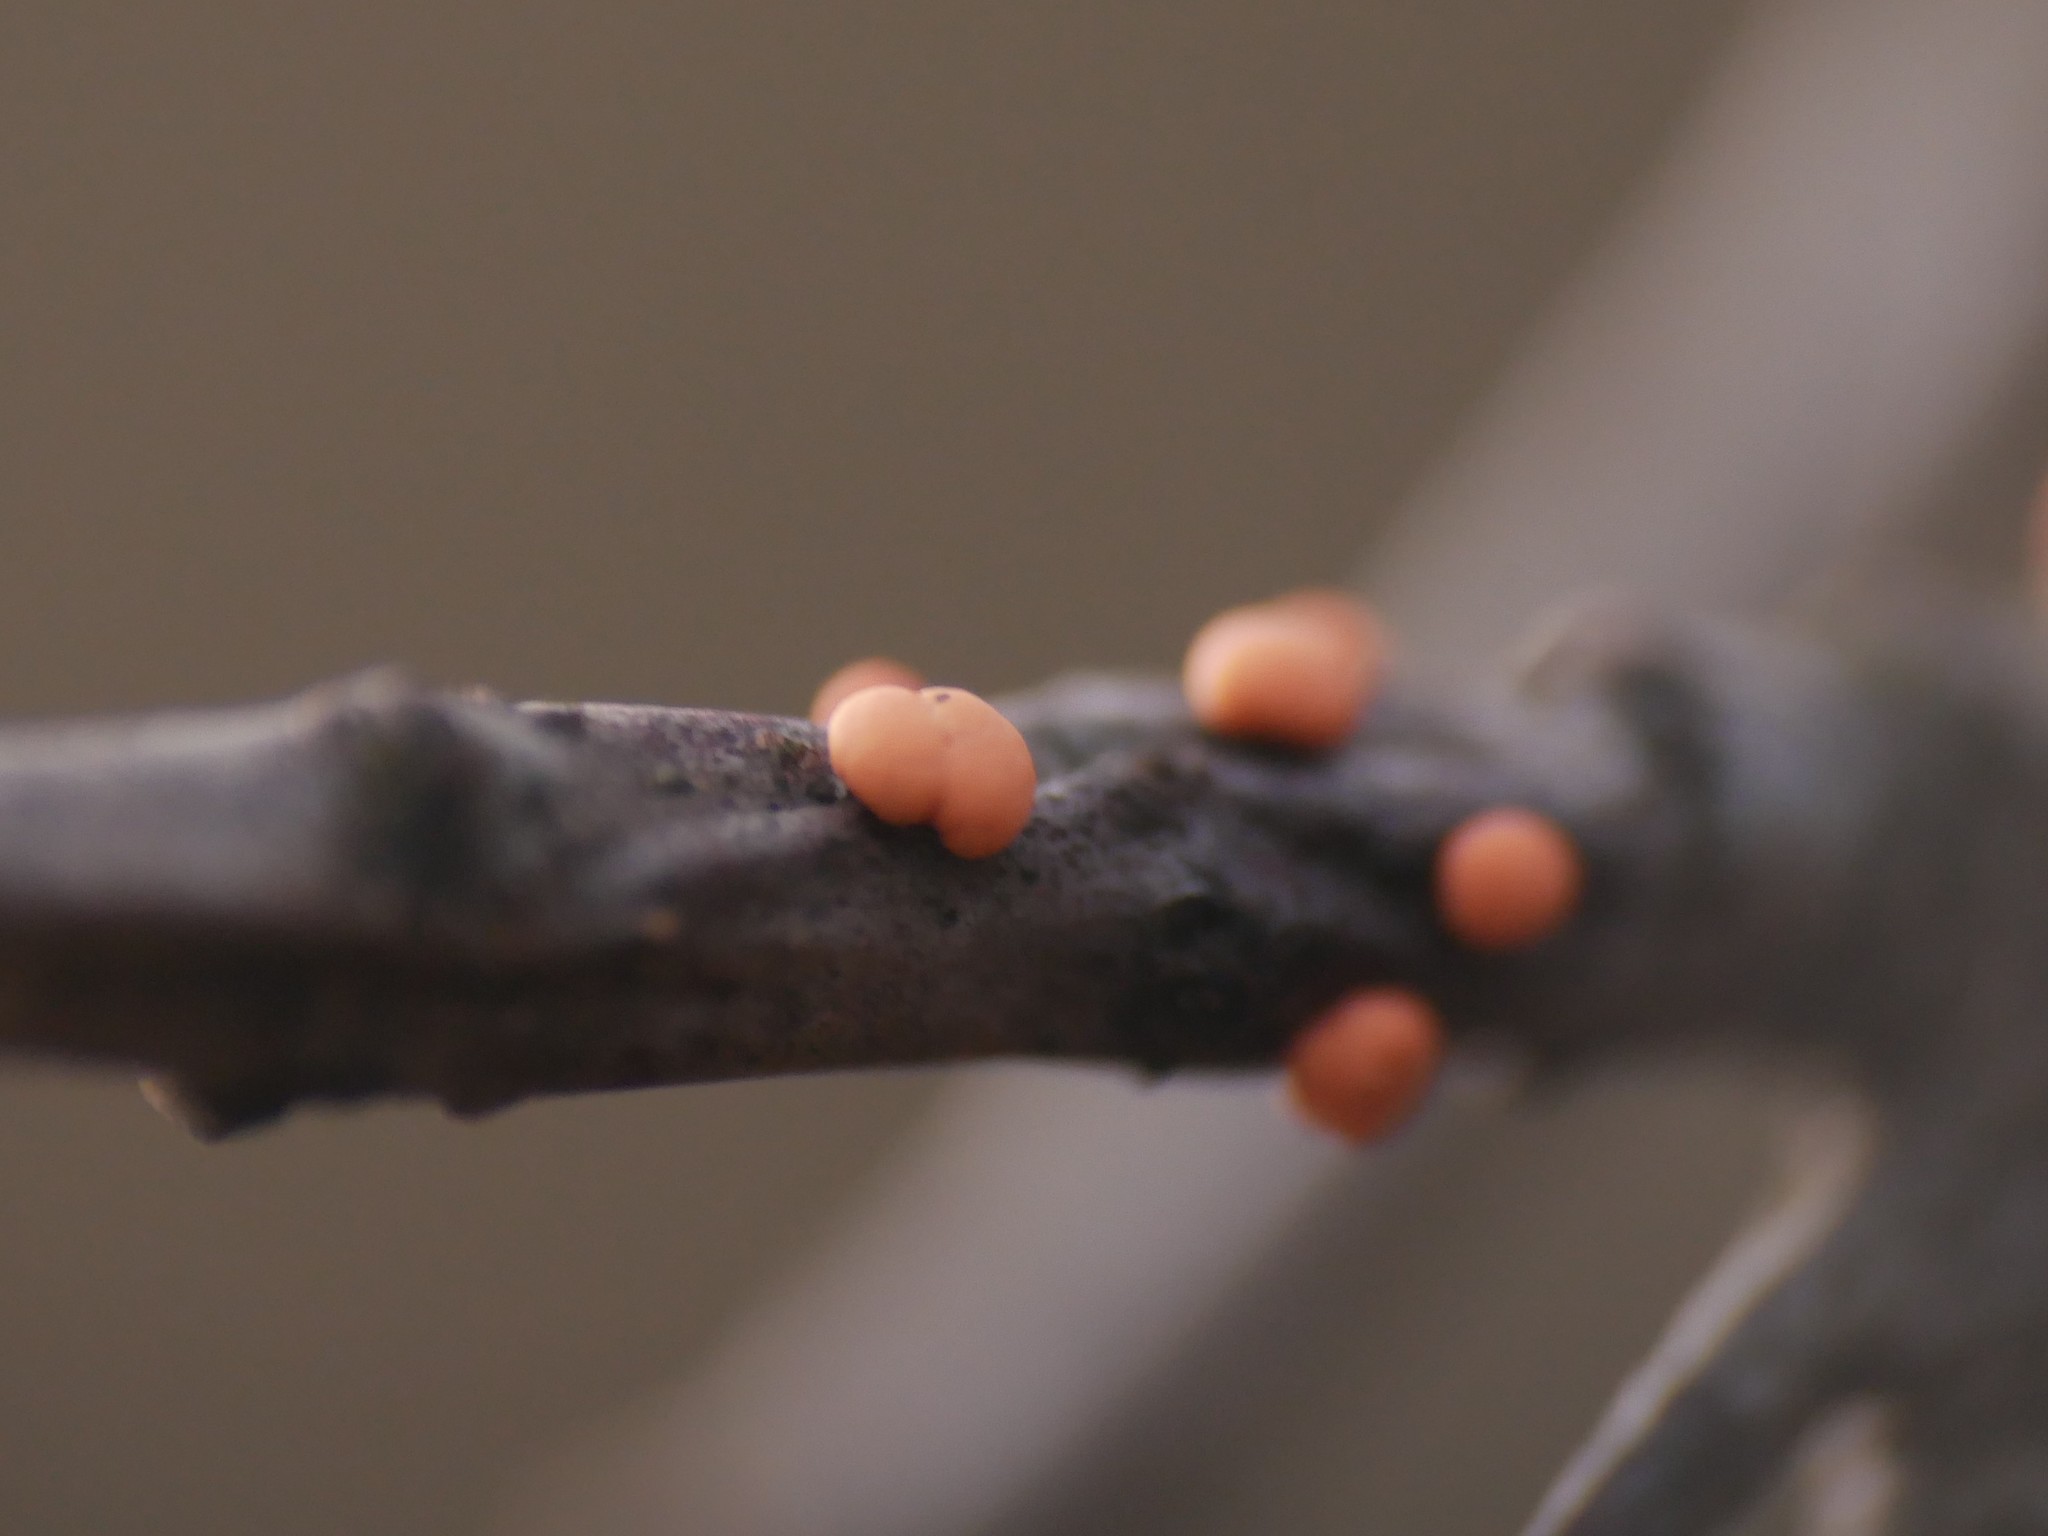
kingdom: Fungi
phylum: Ascomycota
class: Sordariomycetes
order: Hypocreales
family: Nectriaceae
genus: Nectria
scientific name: Nectria cinnabarina
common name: Coral spot
